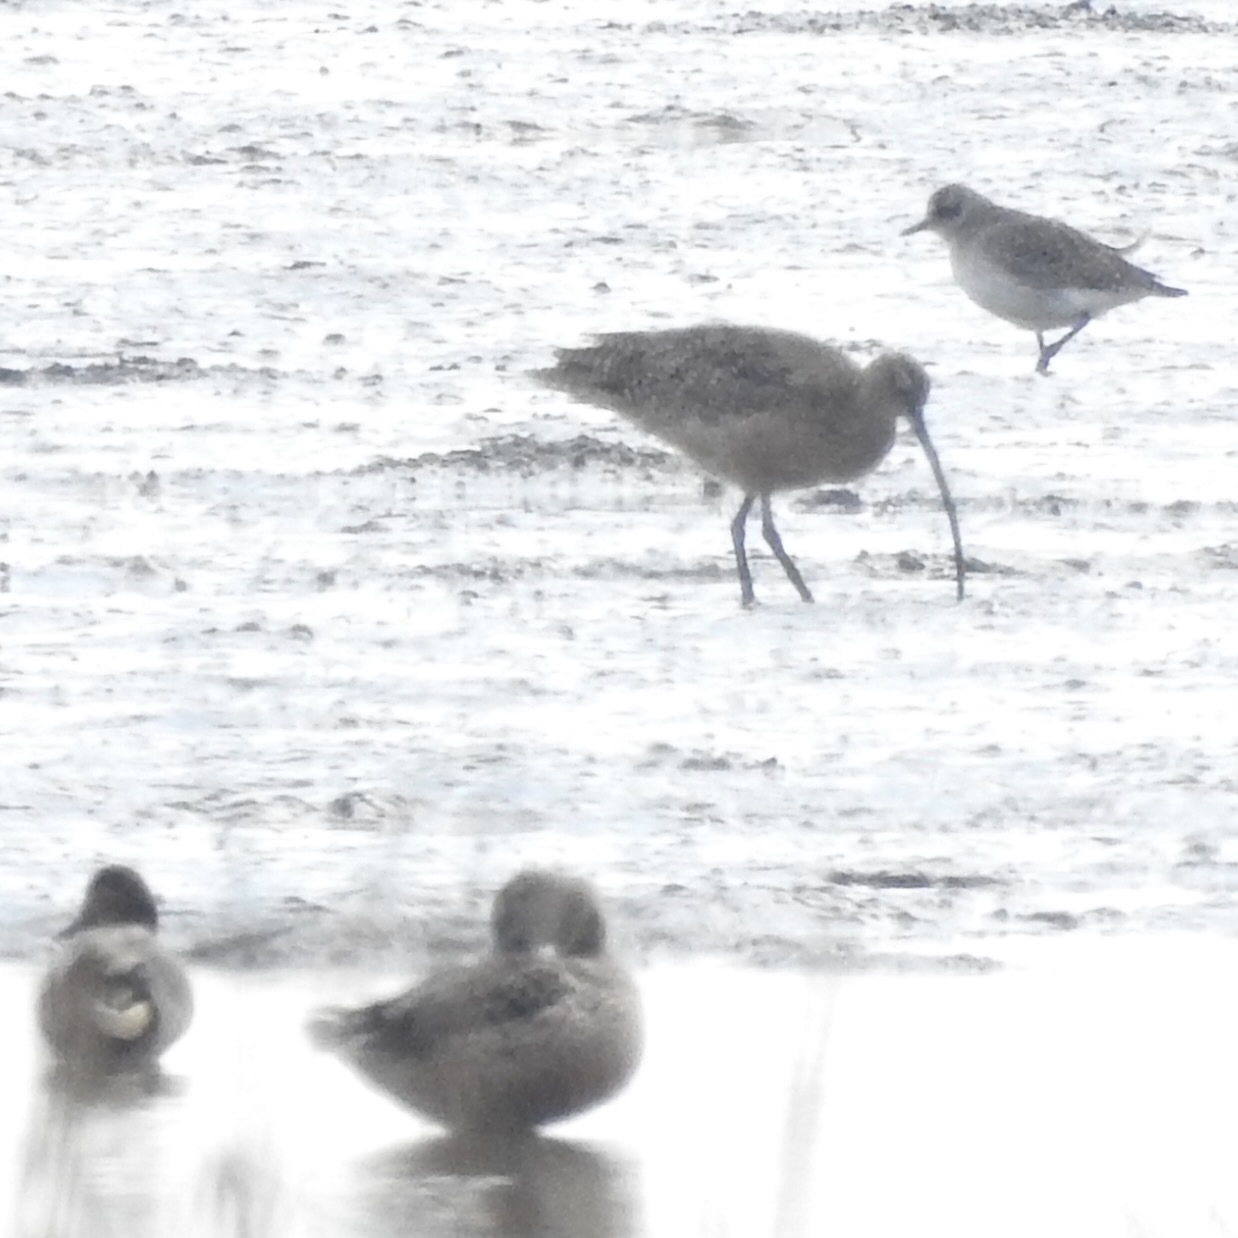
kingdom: Animalia
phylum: Chordata
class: Aves
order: Charadriiformes
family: Scolopacidae
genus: Numenius
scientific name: Numenius americanus
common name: Long-billed curlew
